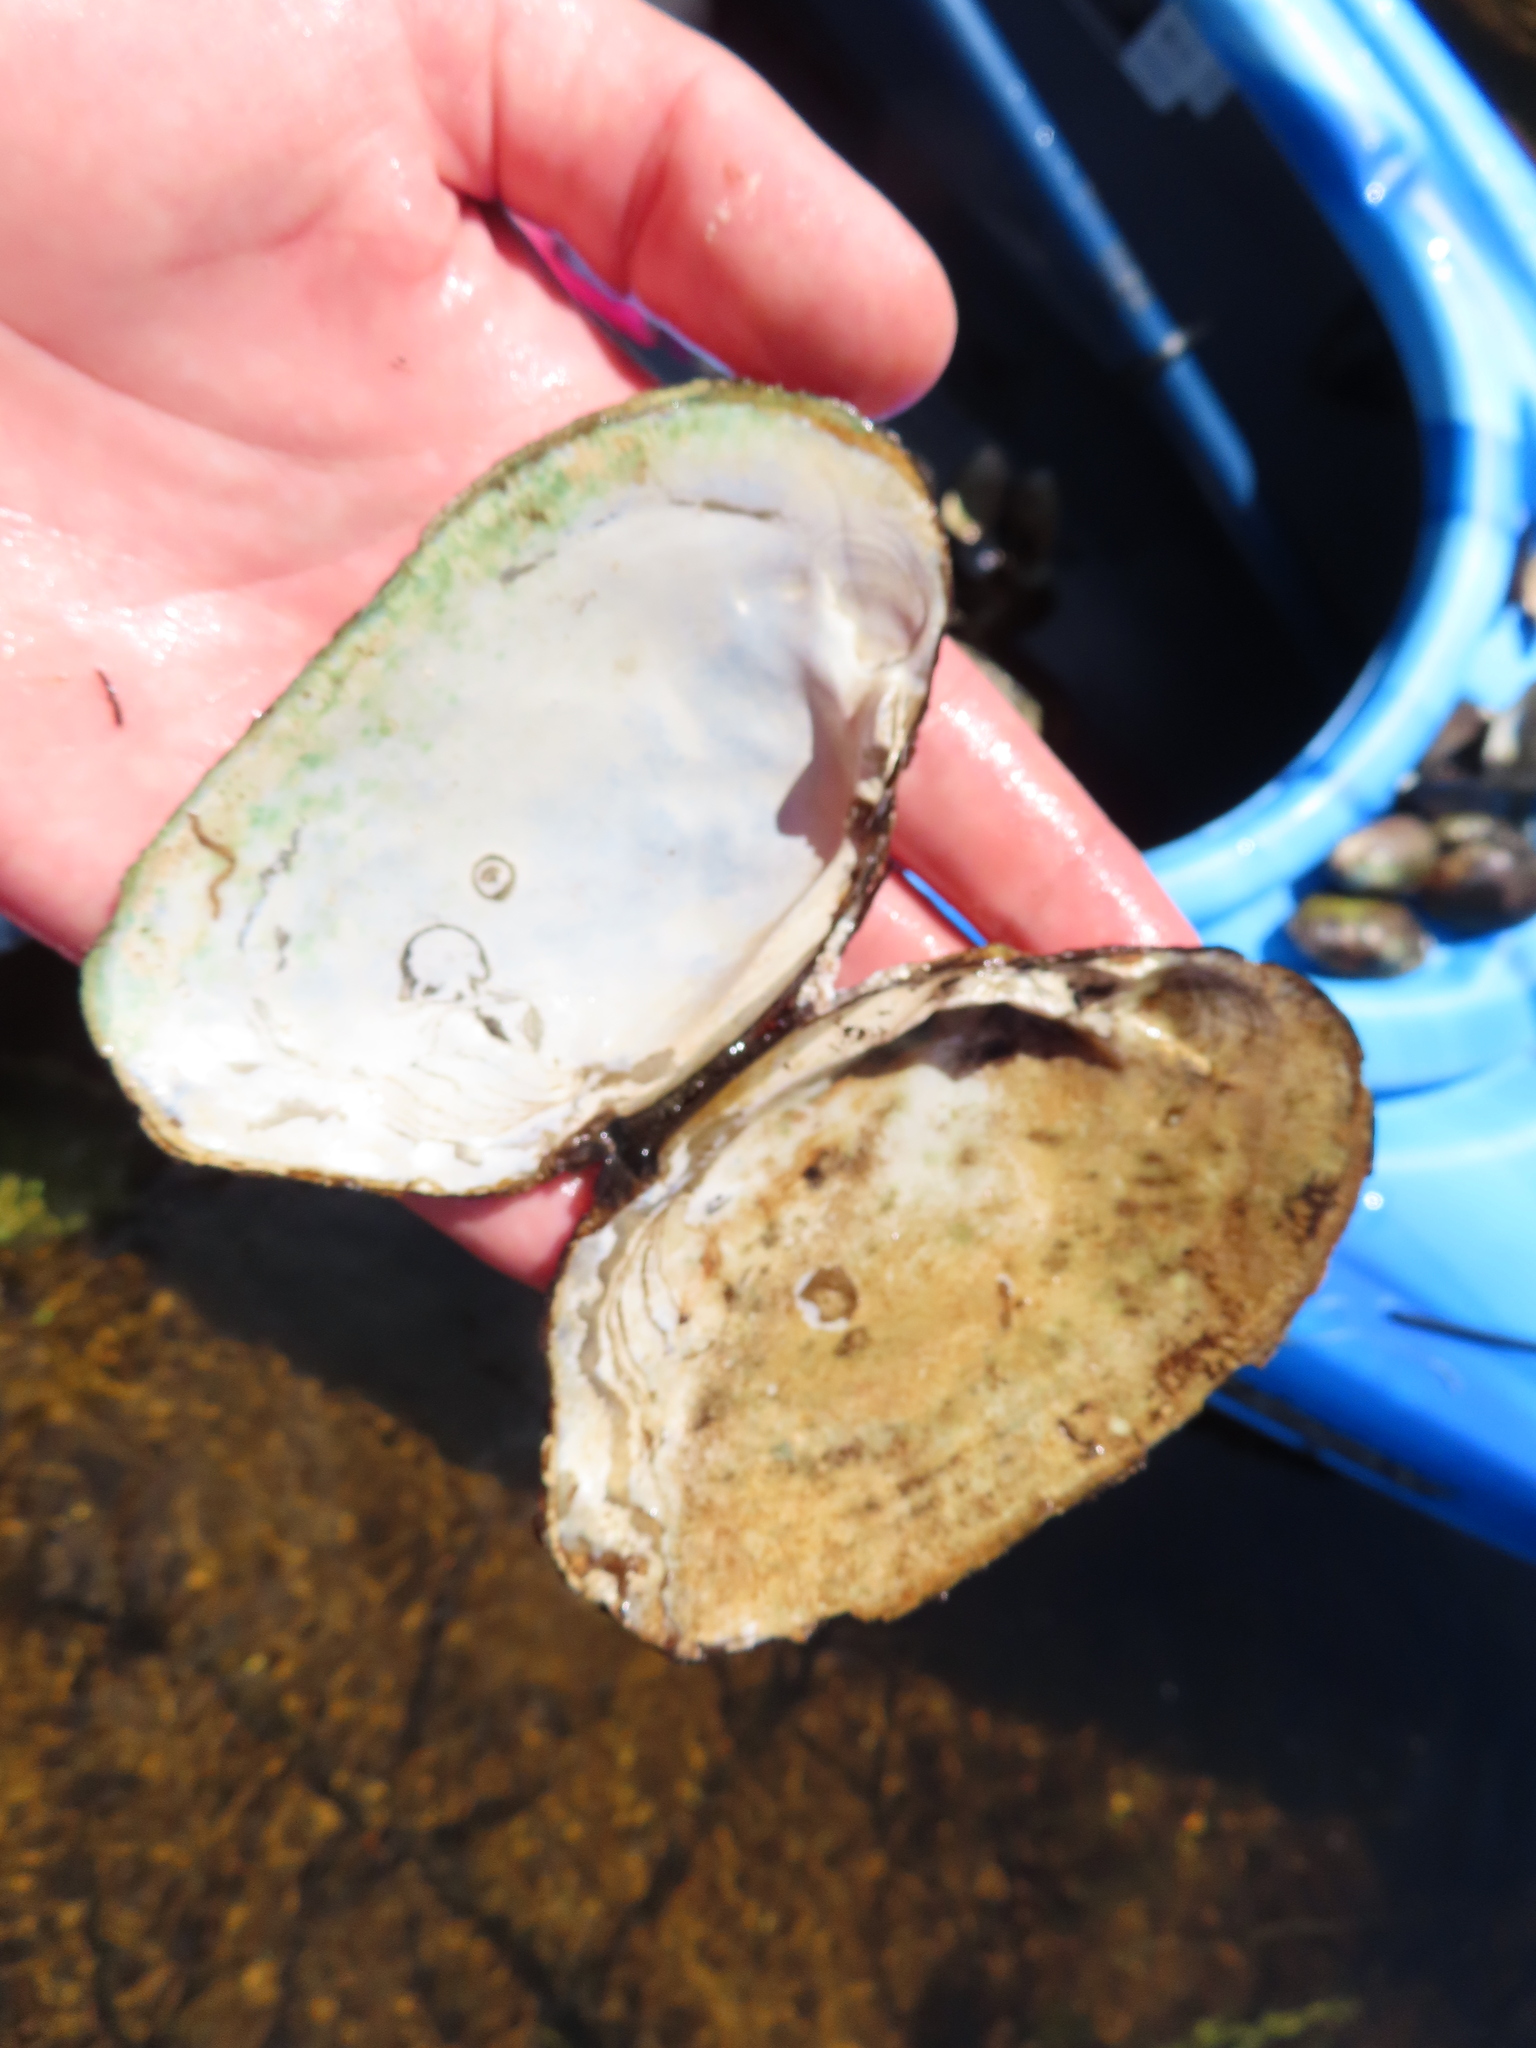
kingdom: Animalia
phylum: Mollusca
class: Bivalvia
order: Unionida
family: Unionidae
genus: Lasmigona
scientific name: Lasmigona costata
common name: Flutedshell
